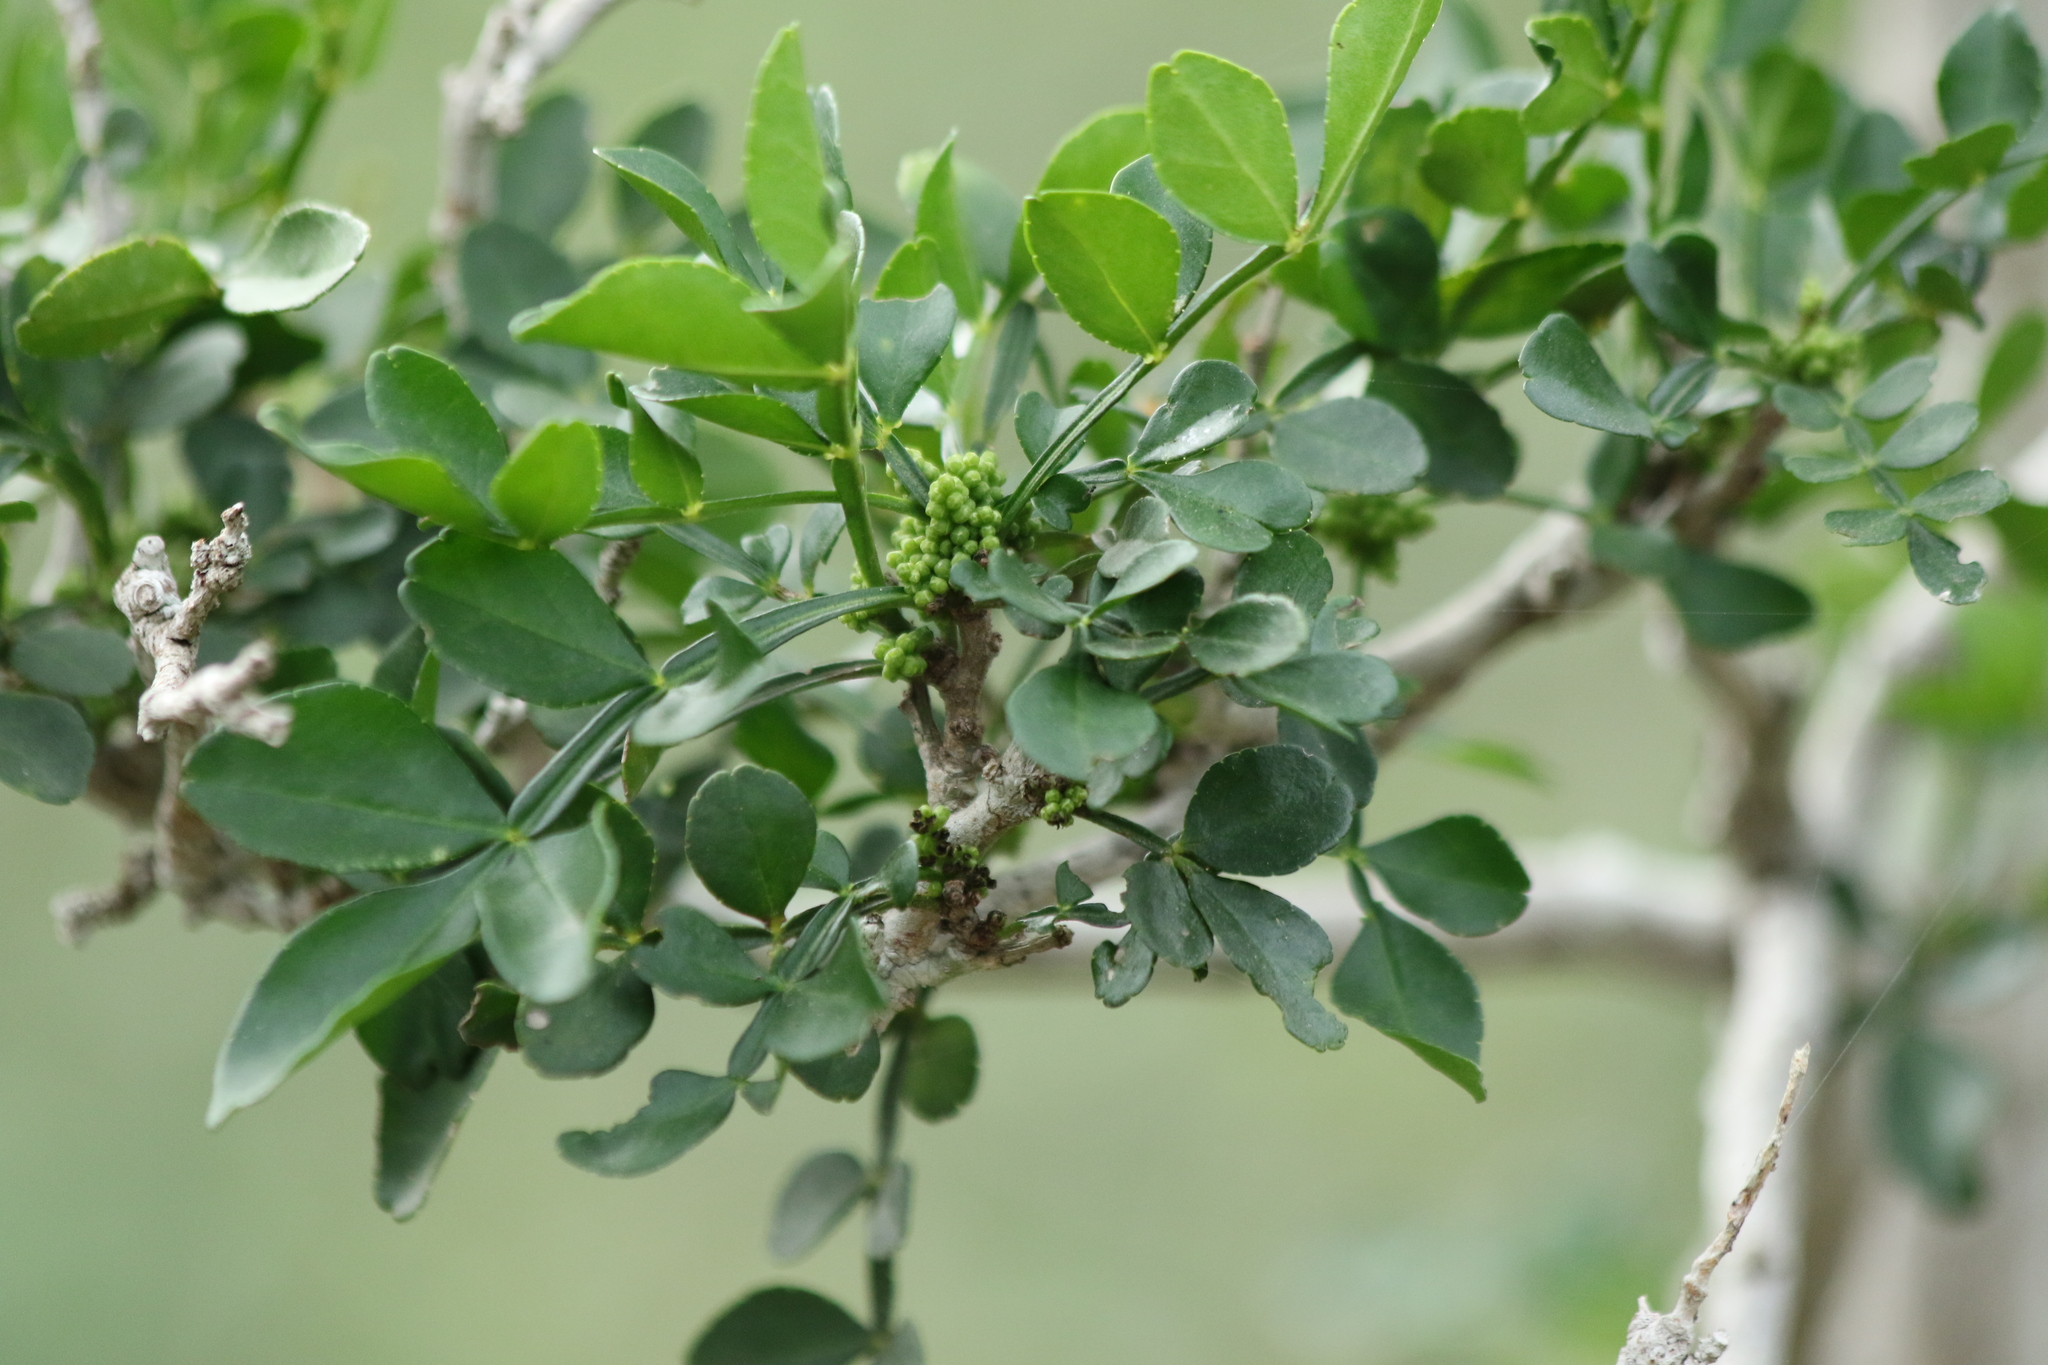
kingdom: Plantae
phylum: Tracheophyta
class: Magnoliopsida
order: Sapindales
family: Rutaceae
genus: Zanthoxylum
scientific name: Zanthoxylum fagara
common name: Lime prickly-ash
